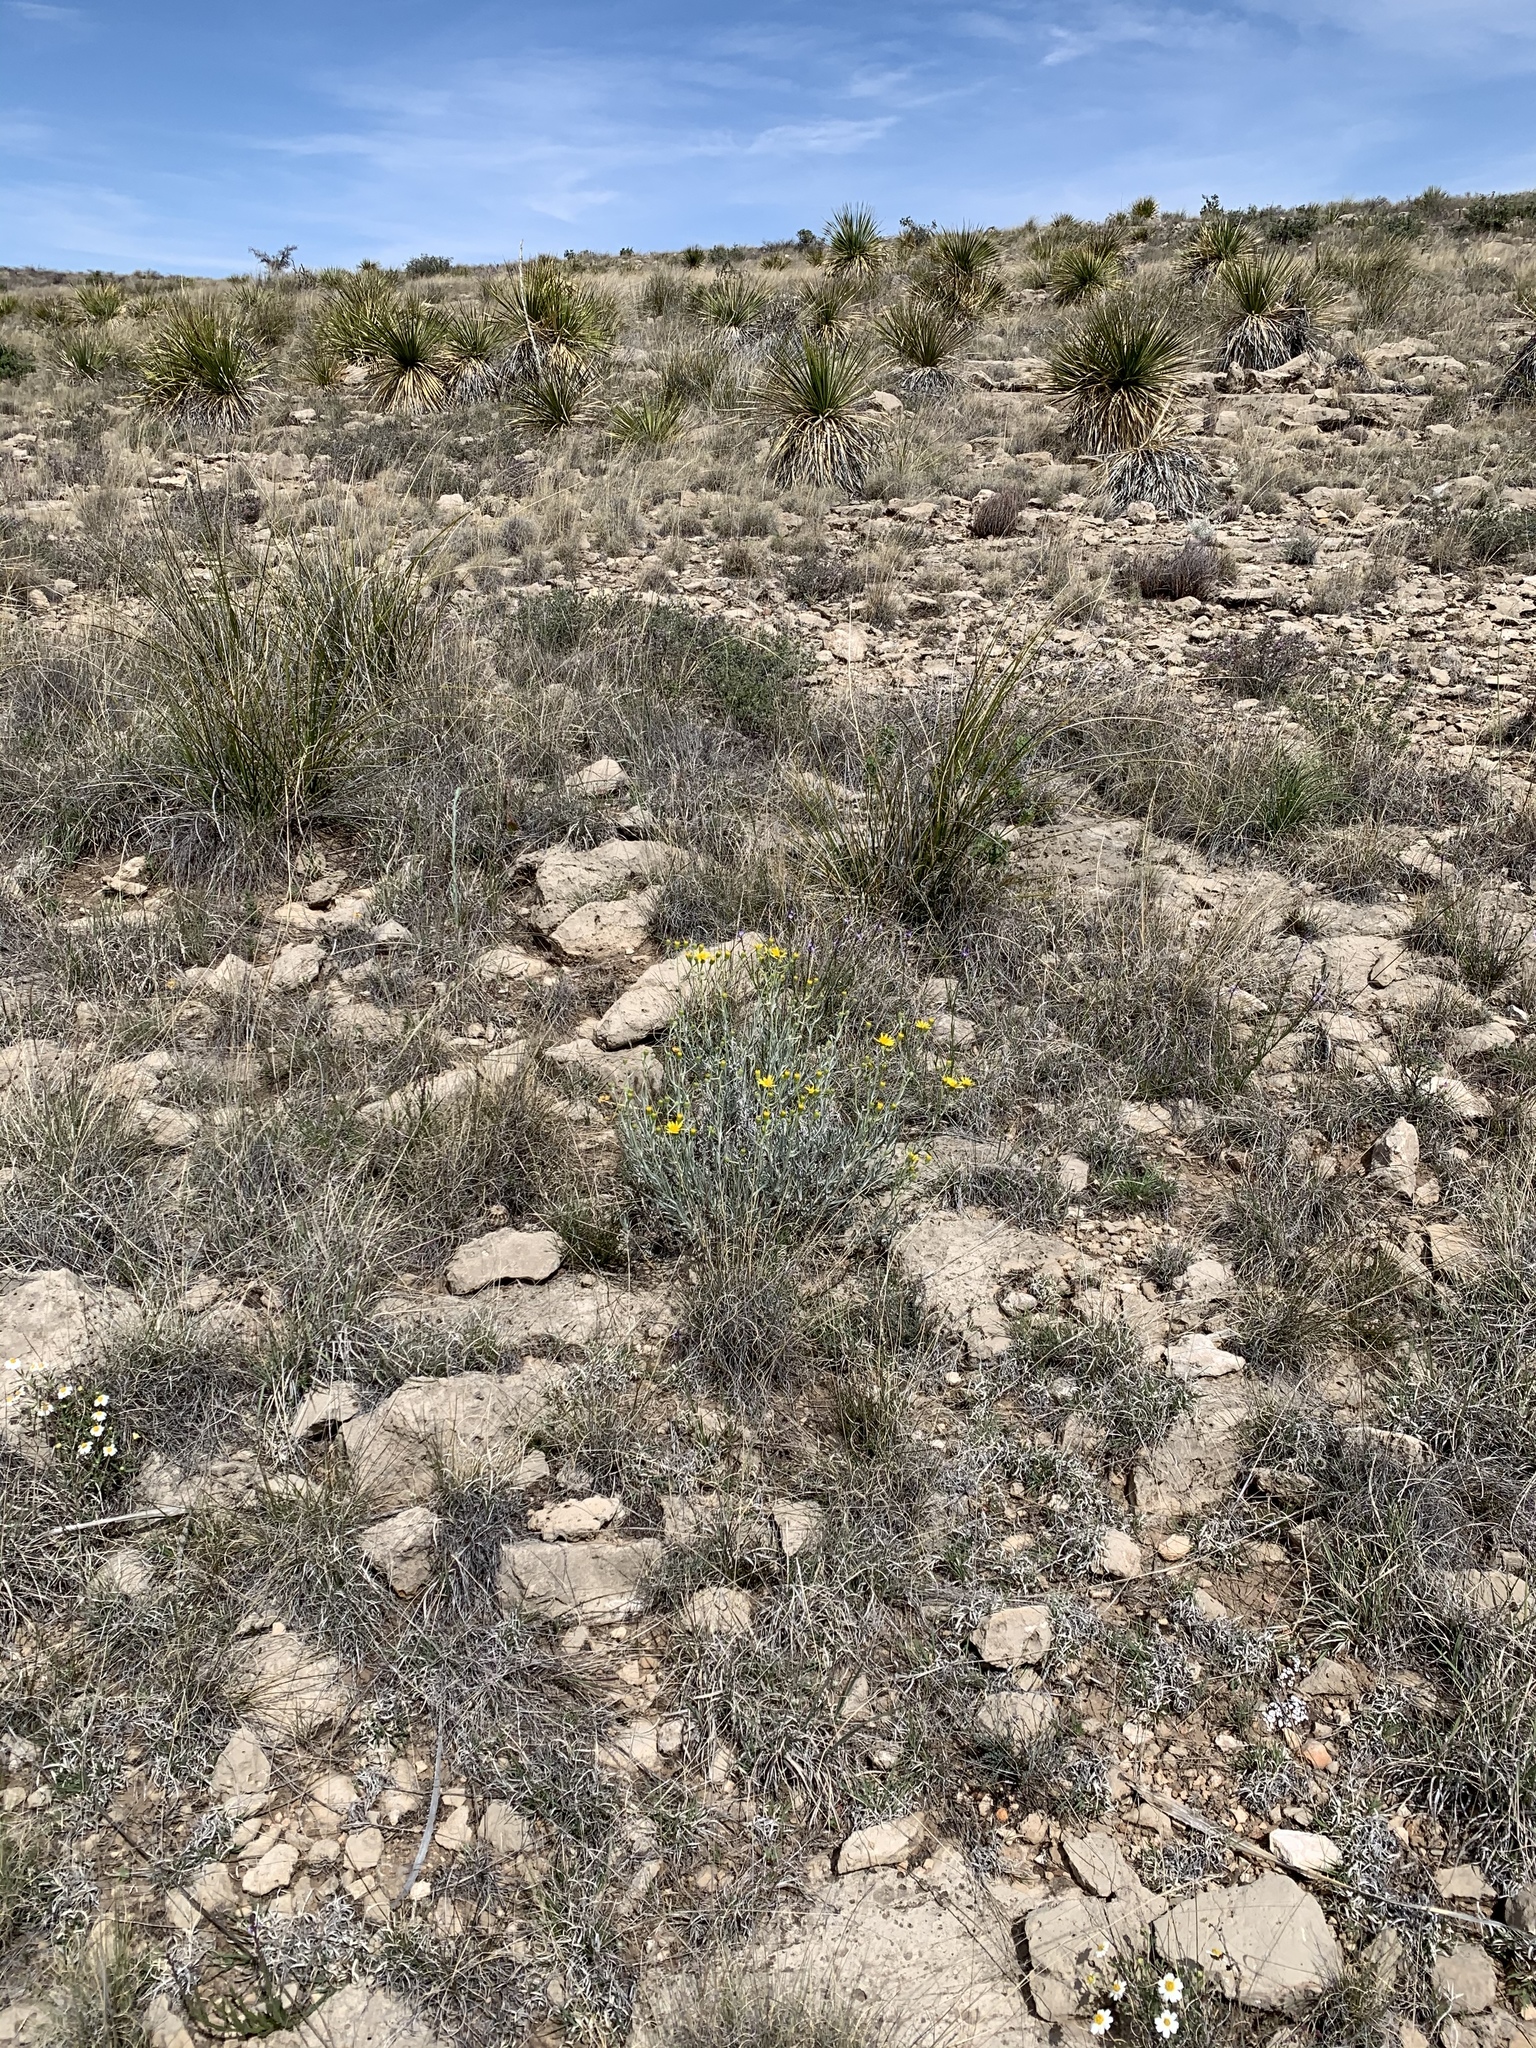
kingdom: Plantae
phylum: Tracheophyta
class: Magnoliopsida
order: Asterales
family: Asteraceae
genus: Senecio
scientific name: Senecio flaccidus
